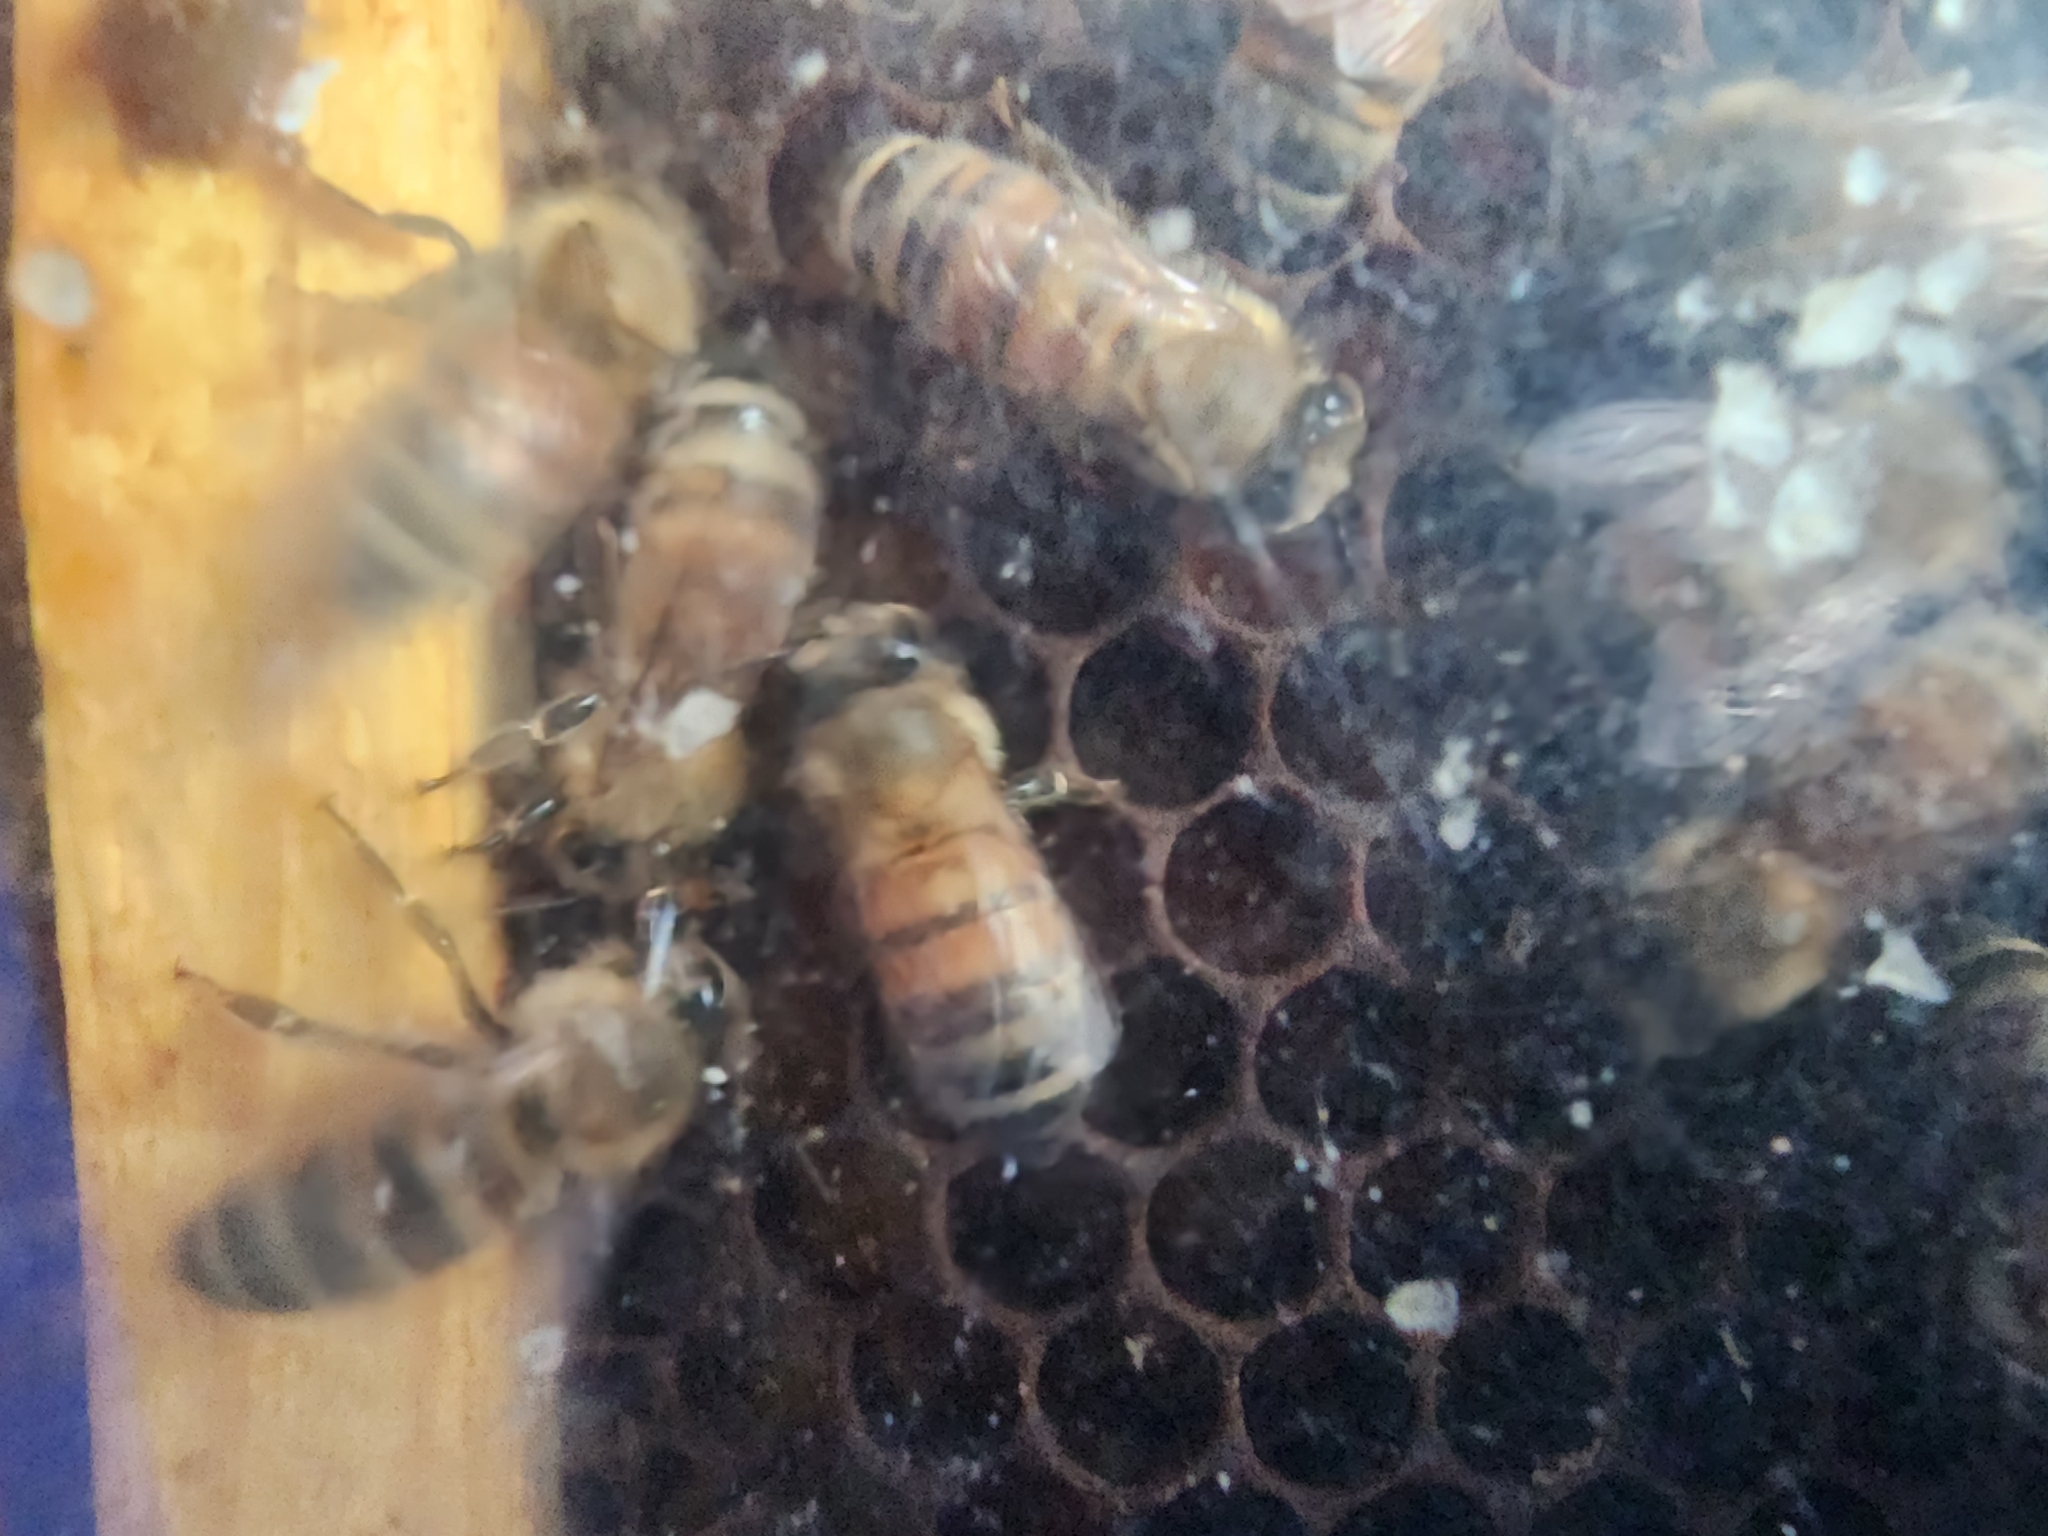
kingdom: Animalia
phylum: Arthropoda
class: Insecta
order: Hymenoptera
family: Apidae
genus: Apis
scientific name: Apis mellifera
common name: Honey bee
